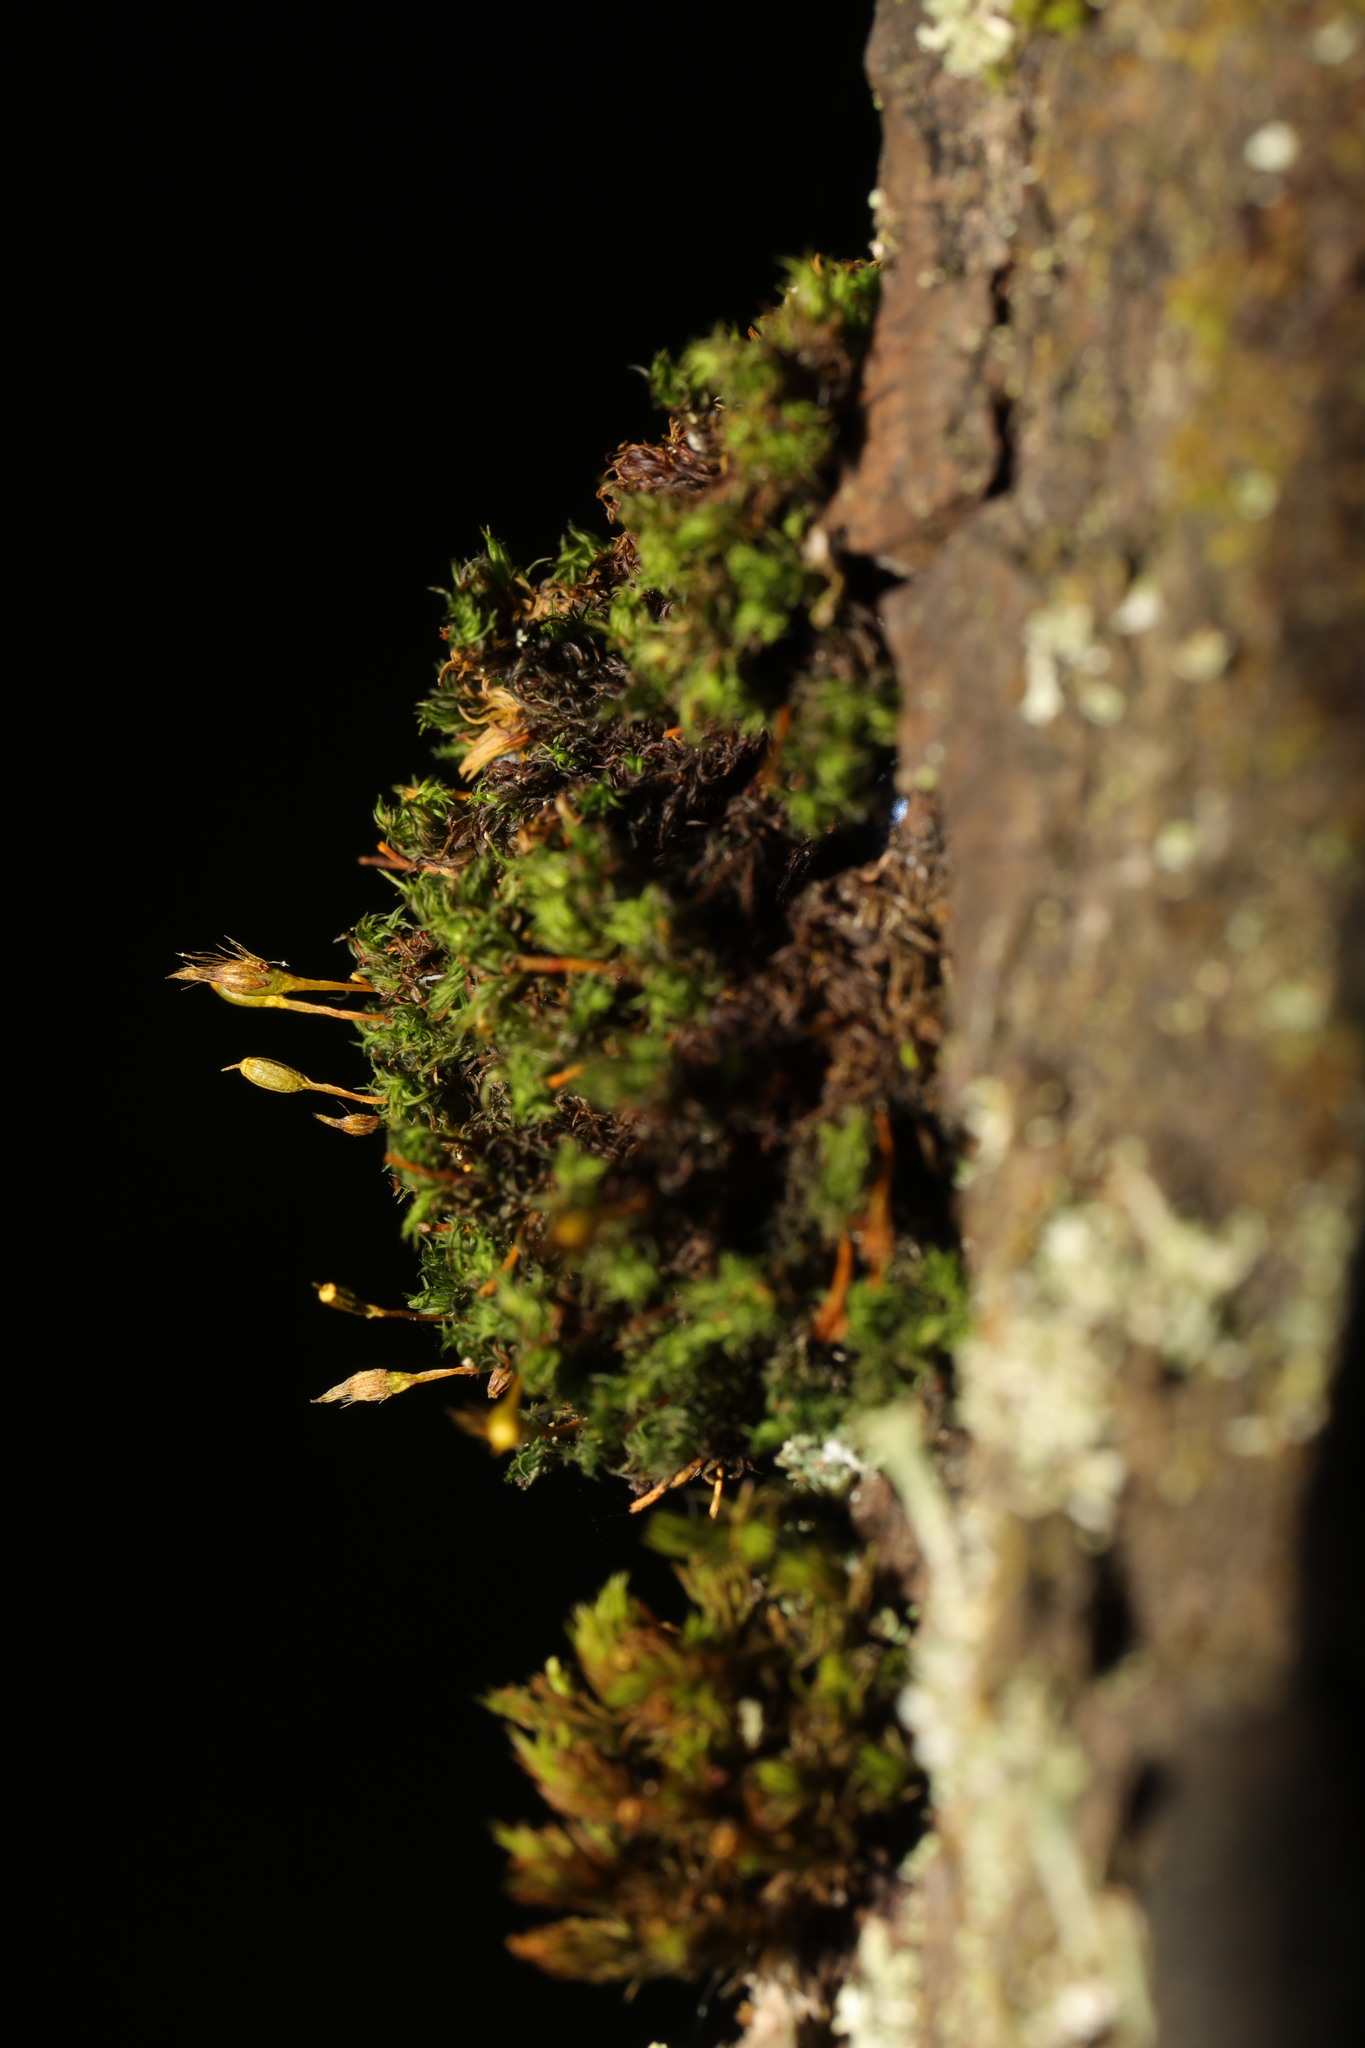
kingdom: Plantae
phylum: Bryophyta
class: Bryopsida
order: Orthotrichales
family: Orthotrichaceae
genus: Ulota
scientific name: Ulota crispa
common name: Crisped pincushion moss
